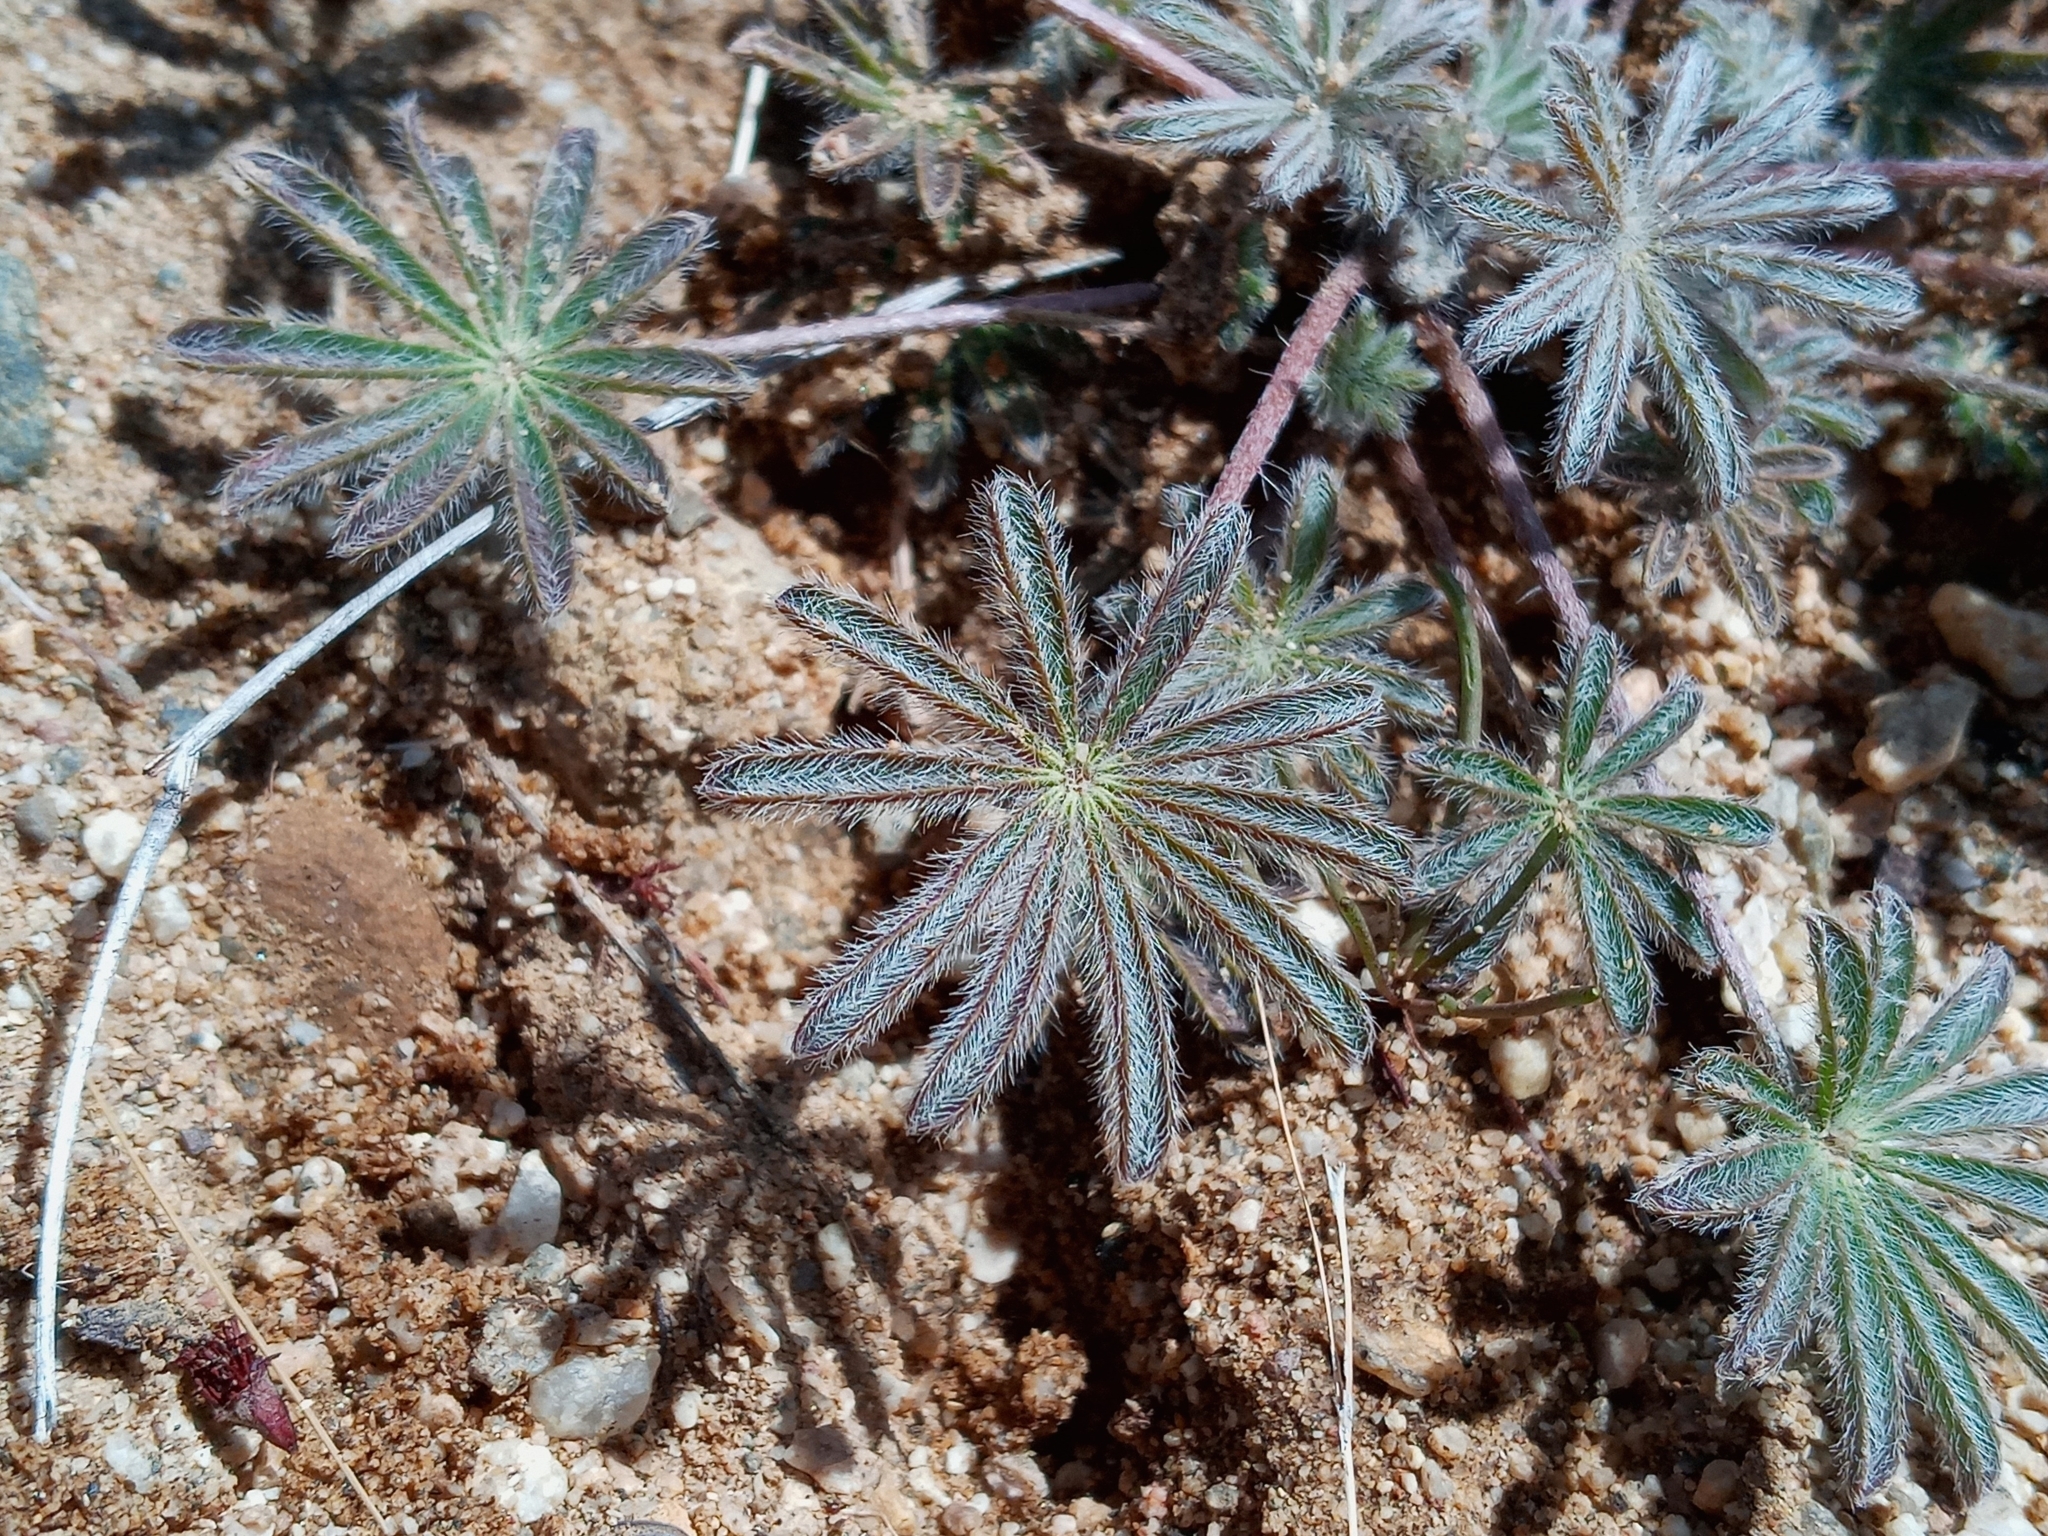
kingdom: Plantae
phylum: Tracheophyta
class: Magnoliopsida
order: Fabales
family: Fabaceae
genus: Lupinus
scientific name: Lupinus sparsiflorus
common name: Coulter's lupine
